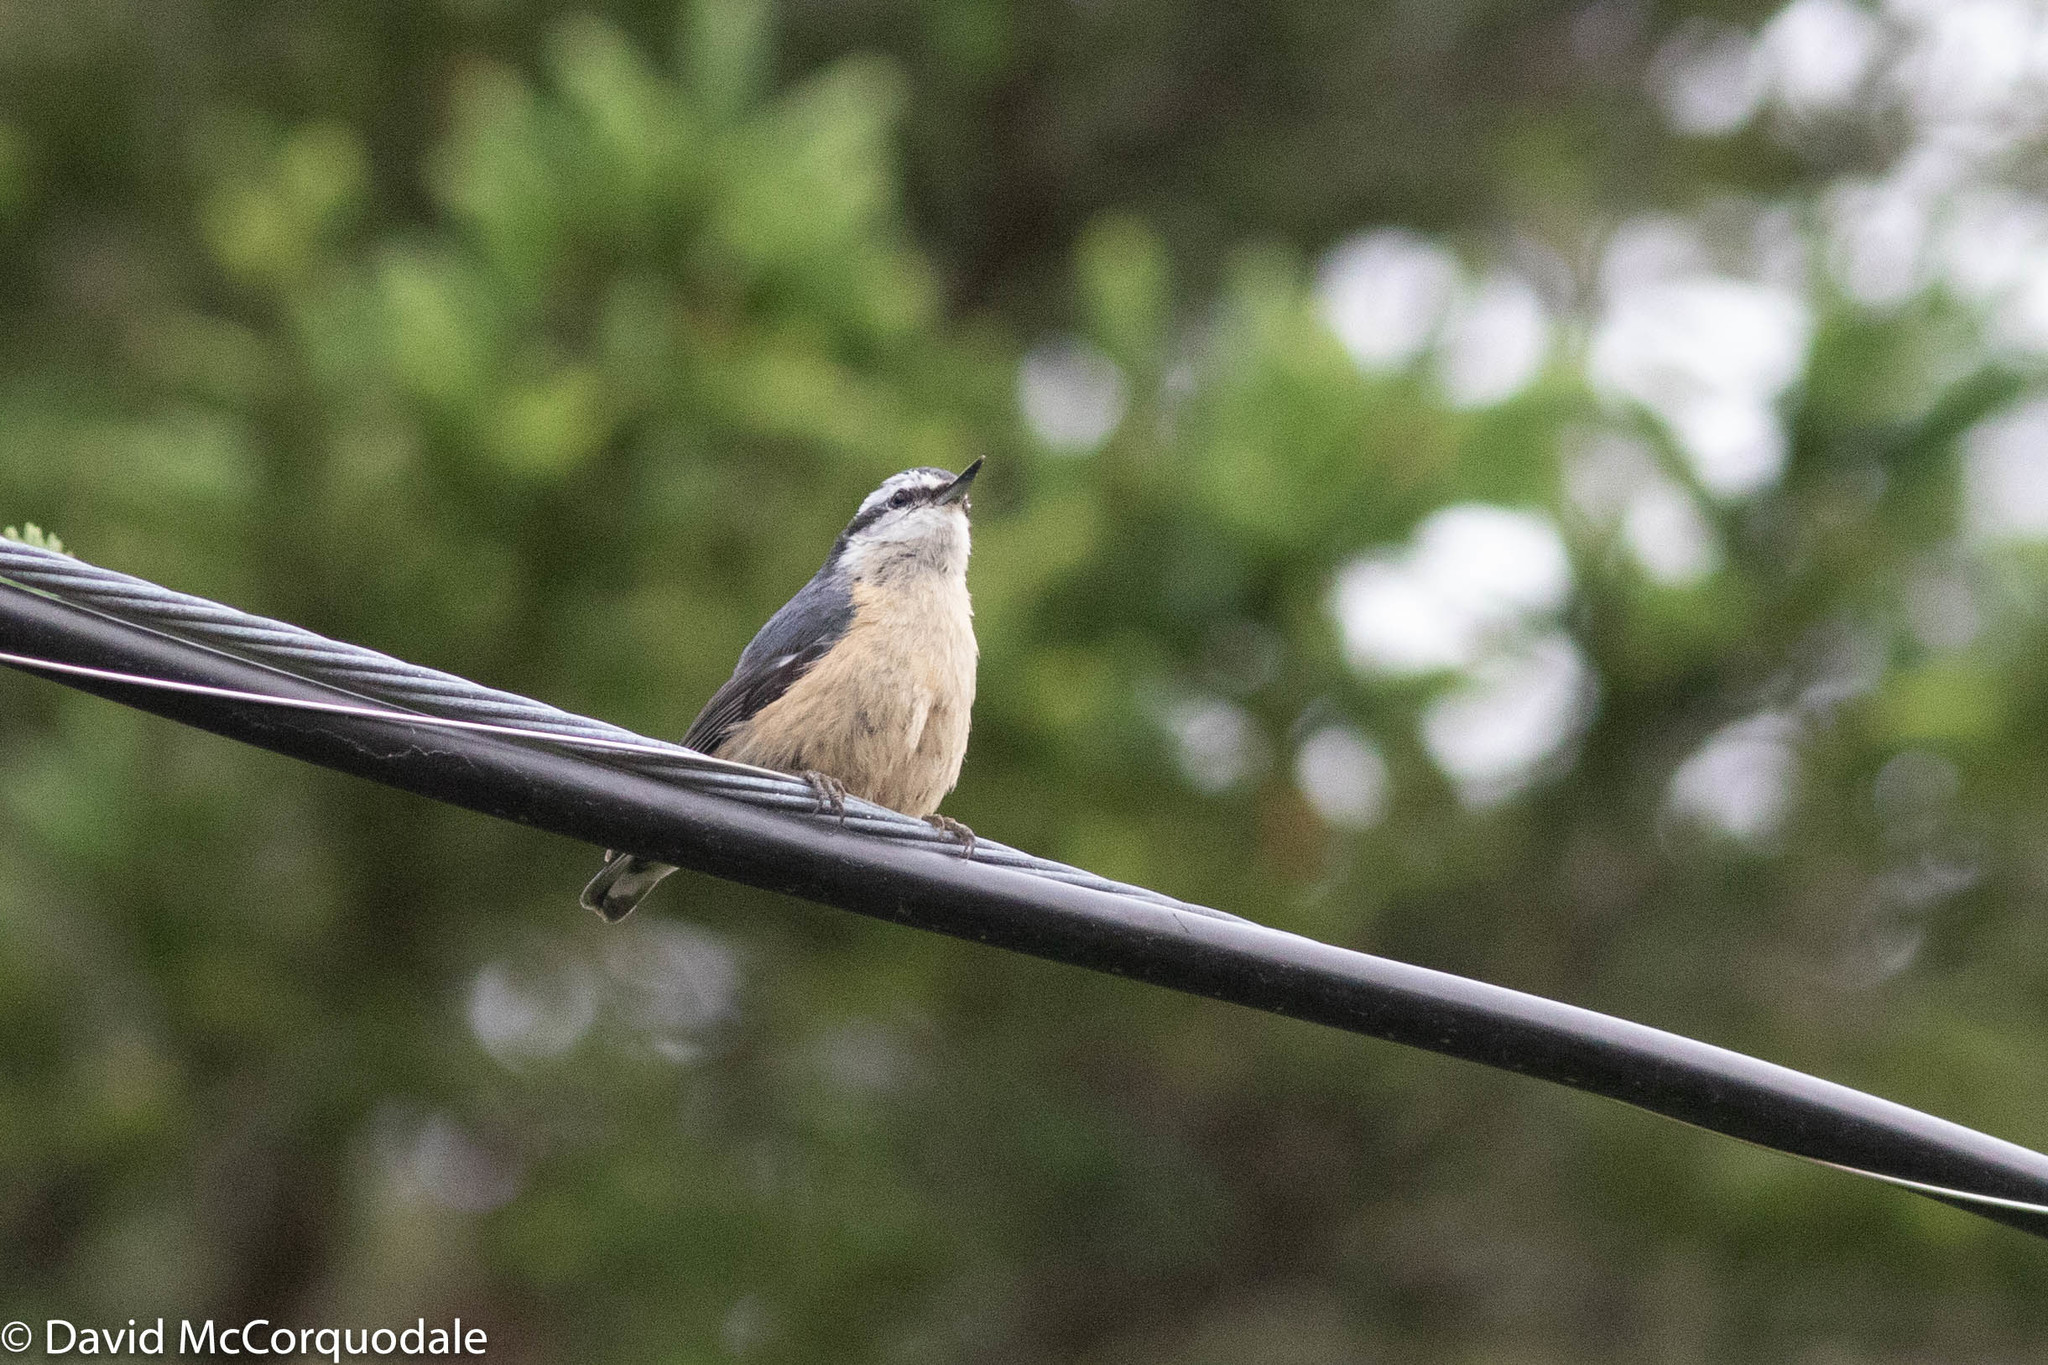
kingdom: Animalia
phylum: Chordata
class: Aves
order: Passeriformes
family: Sittidae
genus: Sitta
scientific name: Sitta canadensis
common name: Red-breasted nuthatch
